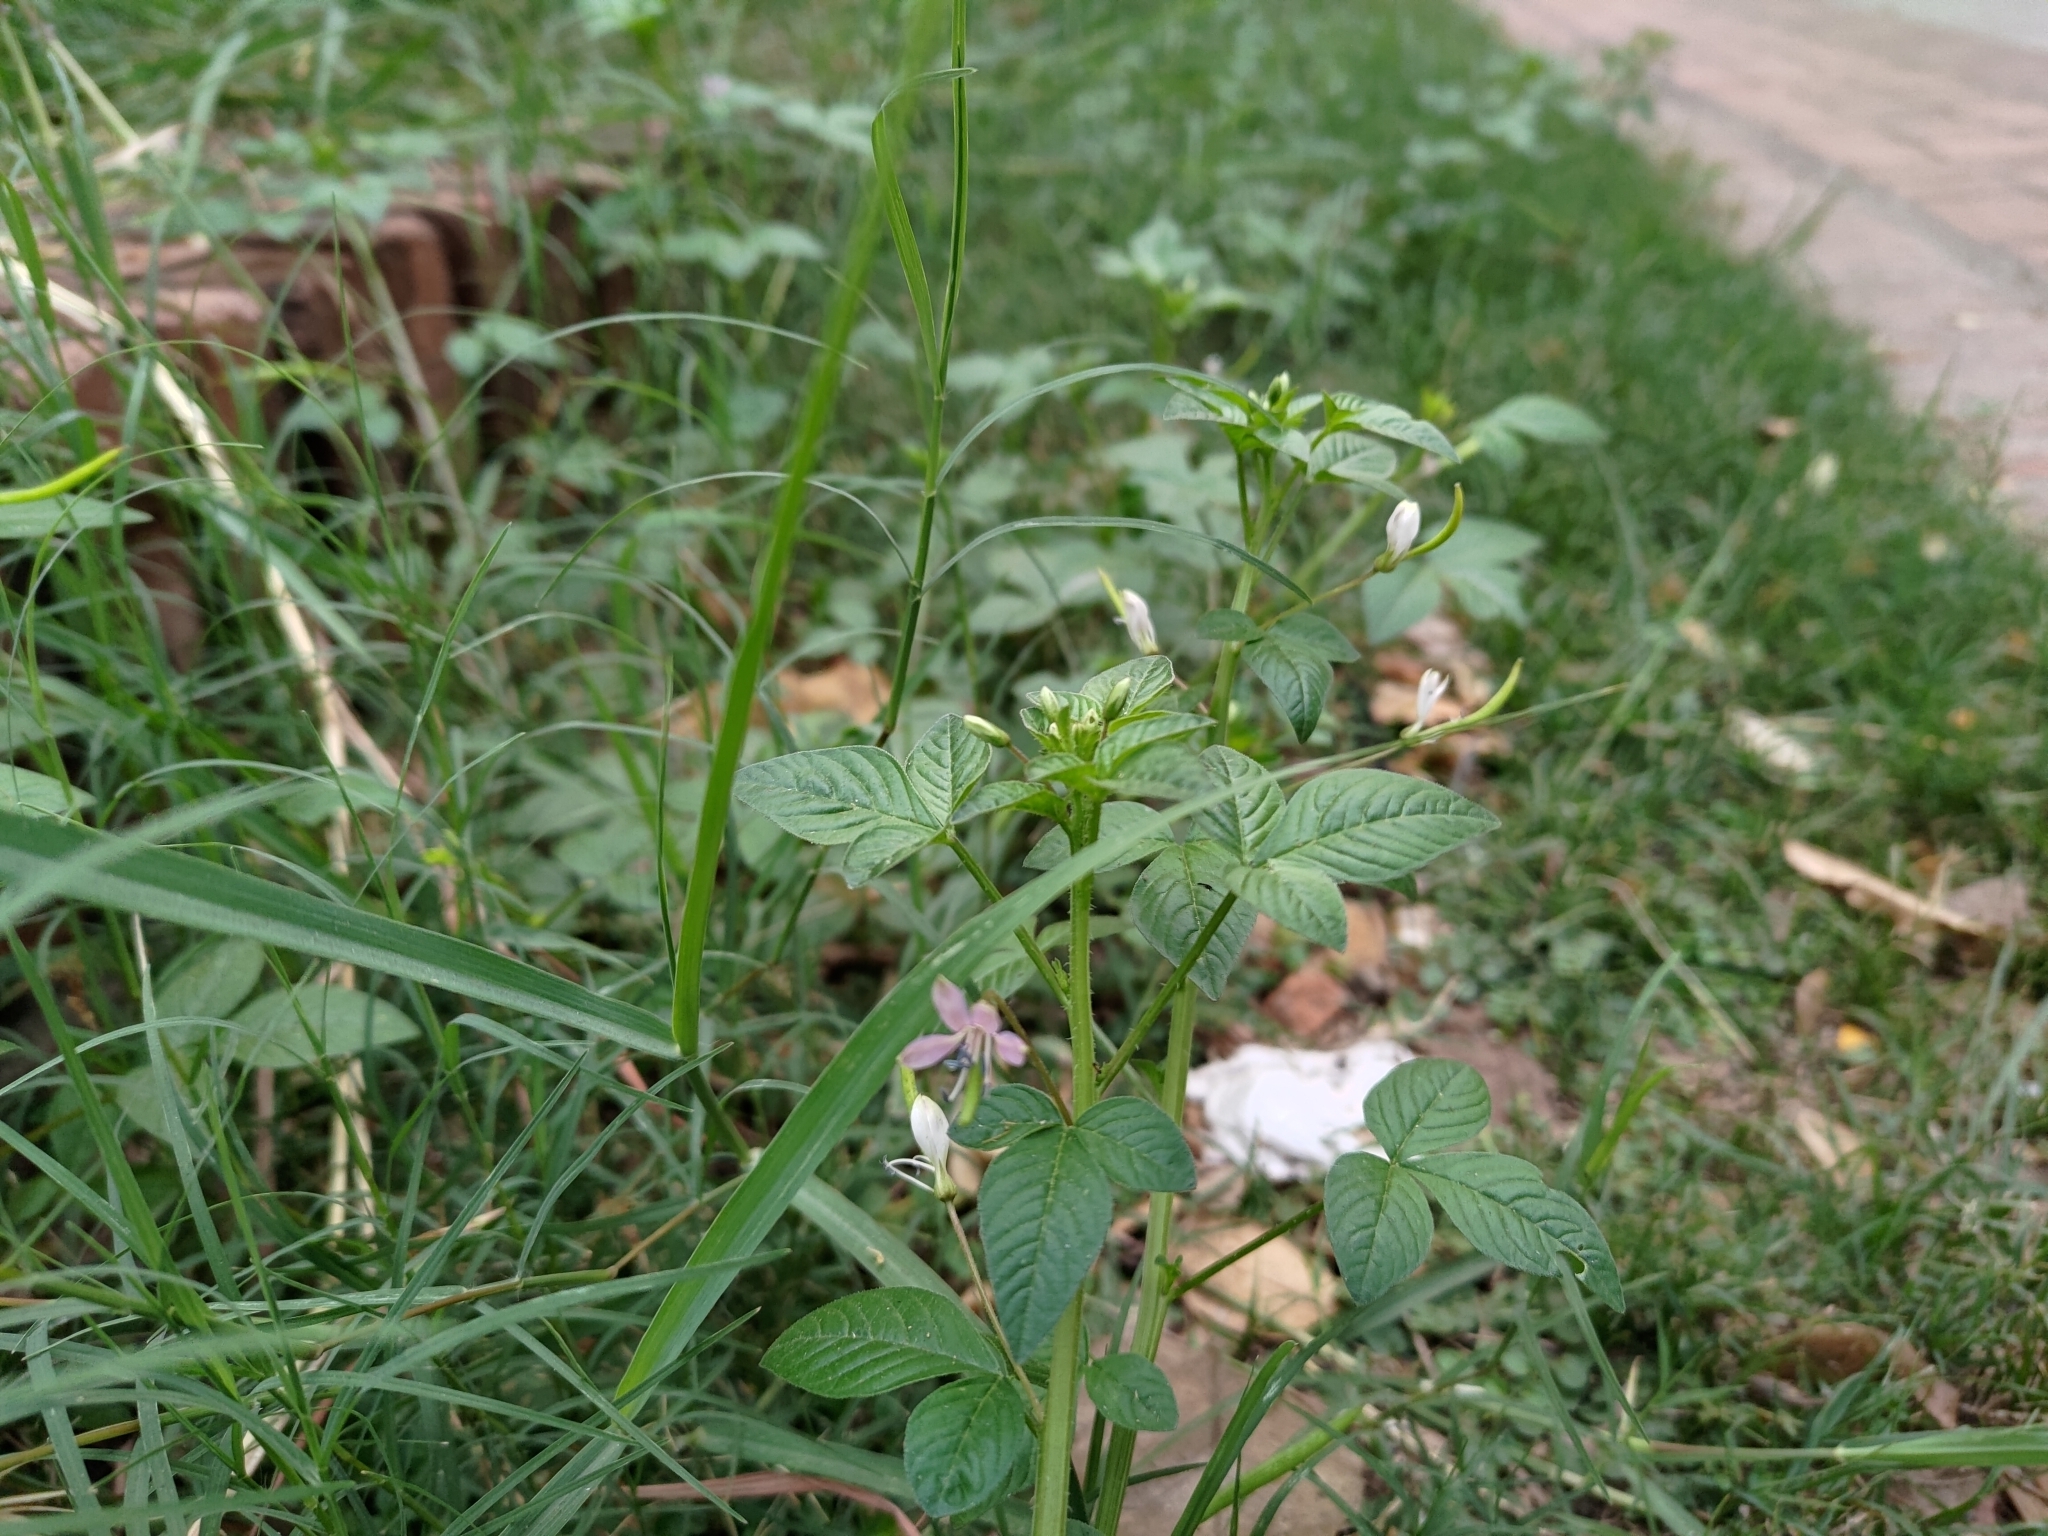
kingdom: Plantae
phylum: Tracheophyta
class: Magnoliopsida
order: Brassicales
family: Cleomaceae
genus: Sieruela
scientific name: Sieruela rutidosperma
